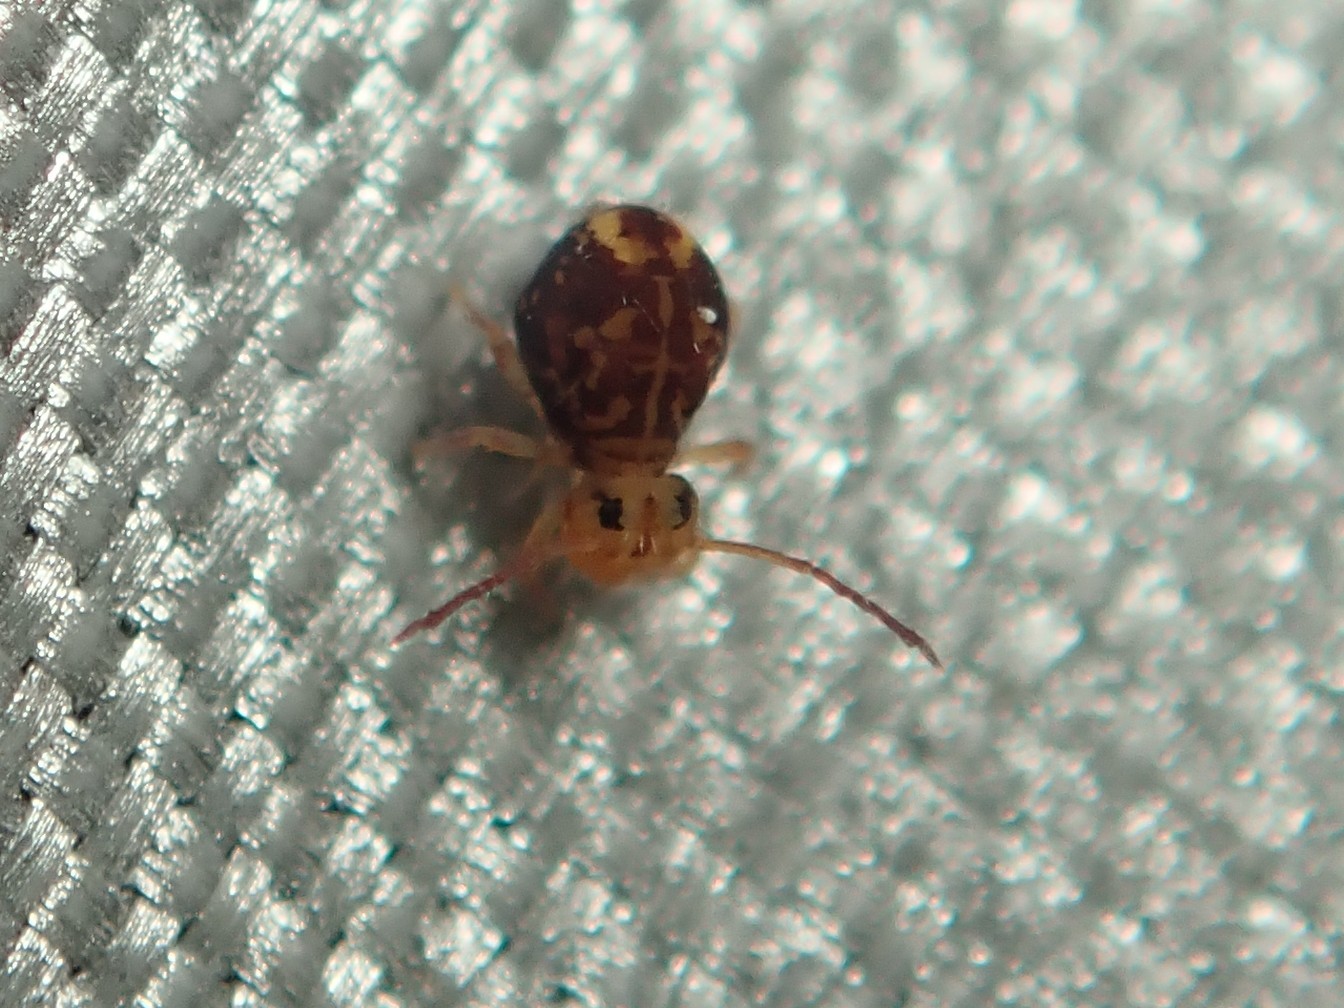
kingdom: Animalia
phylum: Arthropoda
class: Collembola
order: Symphypleona
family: Dicyrtomidae
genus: Dicyrtomina
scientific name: Dicyrtomina ornata
